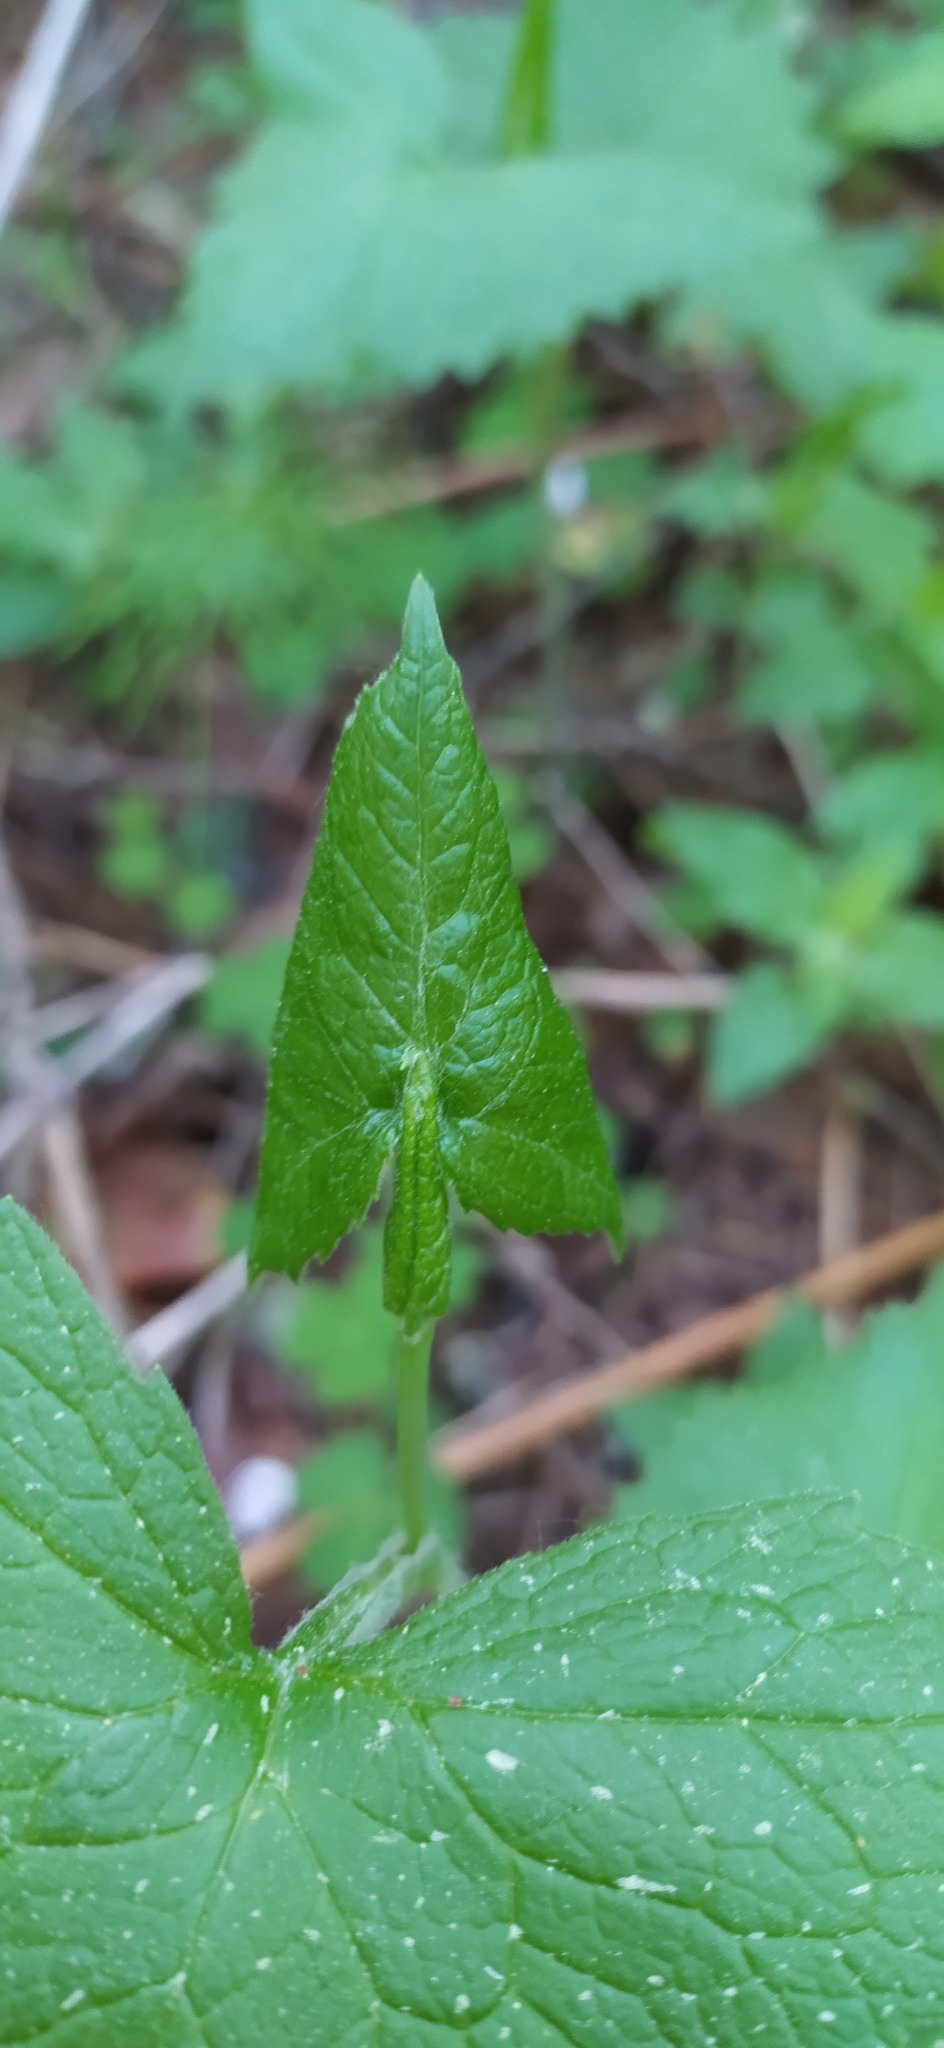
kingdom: Plantae
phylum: Tracheophyta
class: Magnoliopsida
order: Asterales
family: Asteraceae
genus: Parasenecio
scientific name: Parasenecio hastatus
